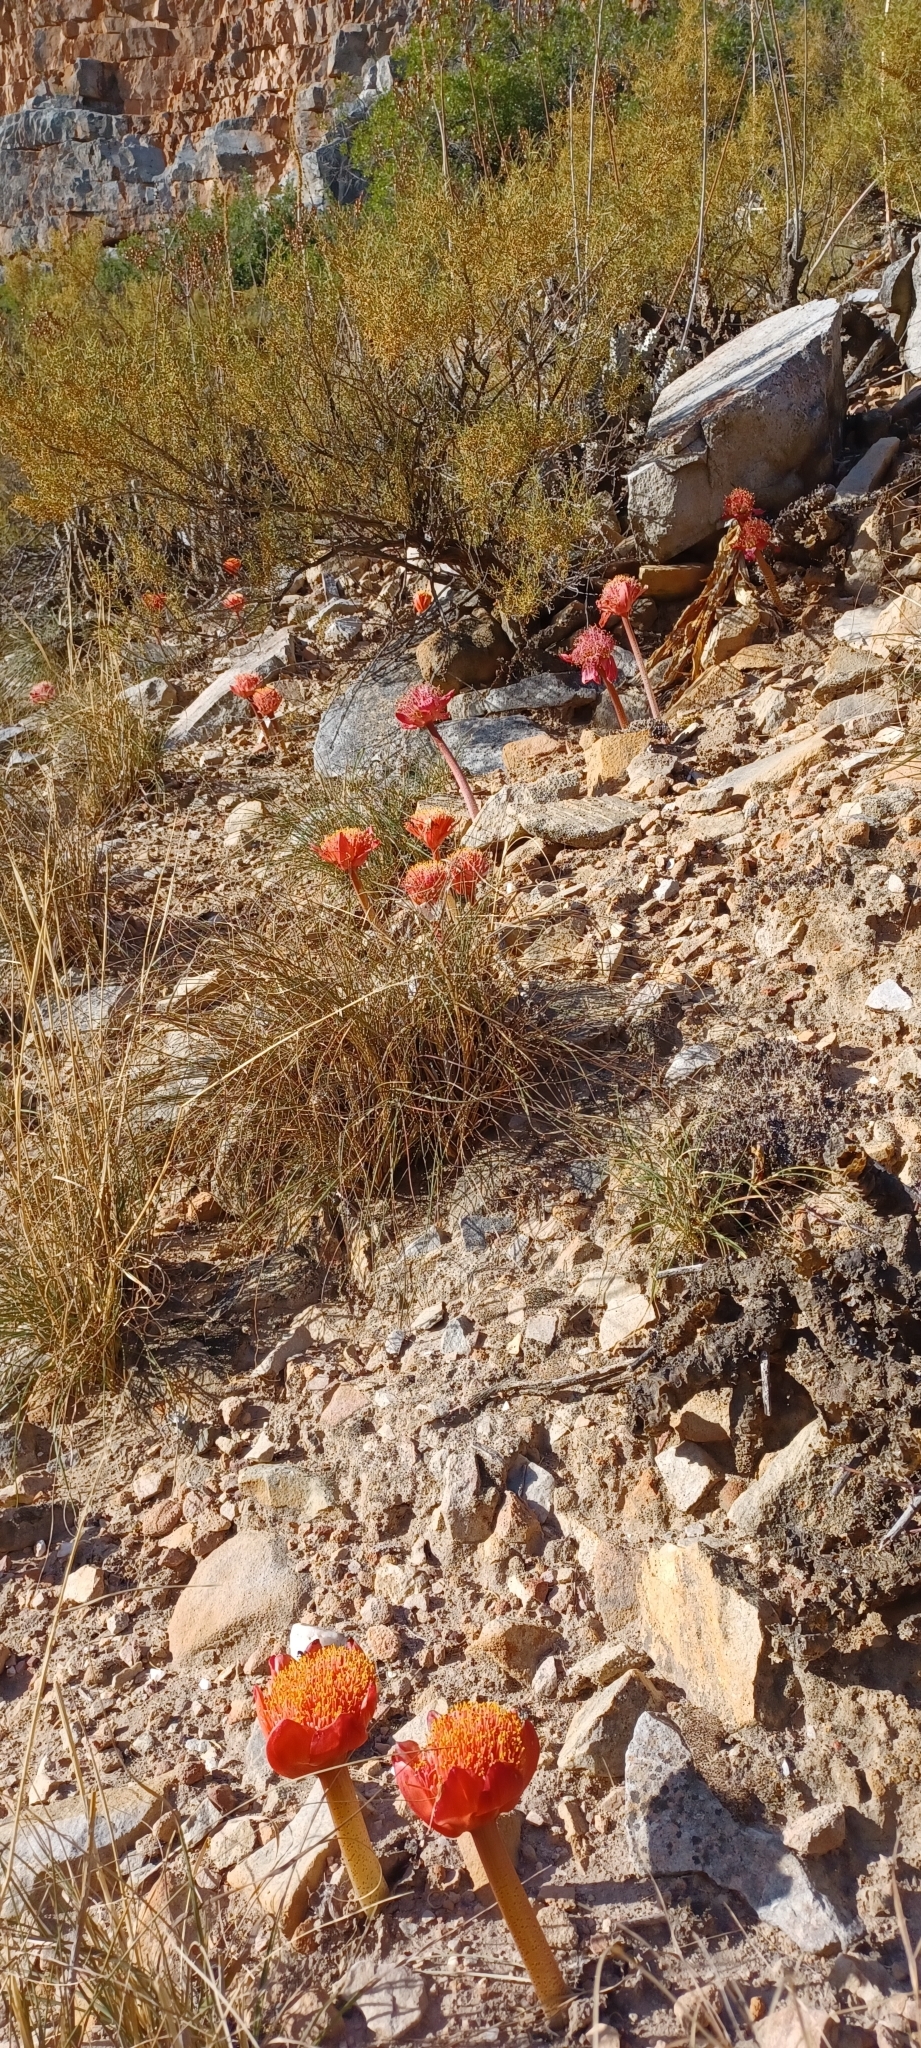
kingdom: Plantae
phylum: Tracheophyta
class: Liliopsida
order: Asparagales
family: Amaryllidaceae
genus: Haemanthus
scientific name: Haemanthus coccineus
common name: Cape-tulip
